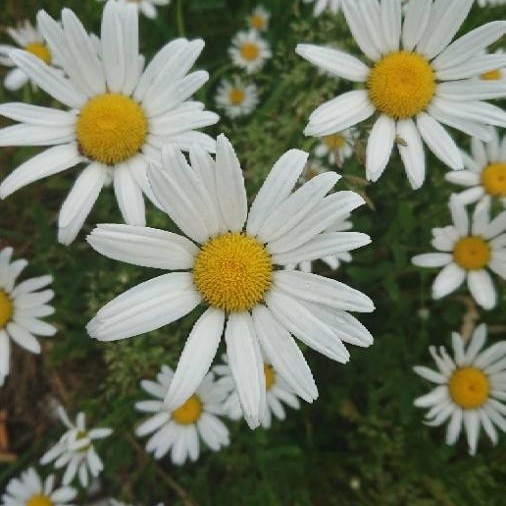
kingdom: Plantae
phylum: Tracheophyta
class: Magnoliopsida
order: Asterales
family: Asteraceae
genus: Leucanthemum
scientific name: Leucanthemum vulgare
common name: Oxeye daisy
